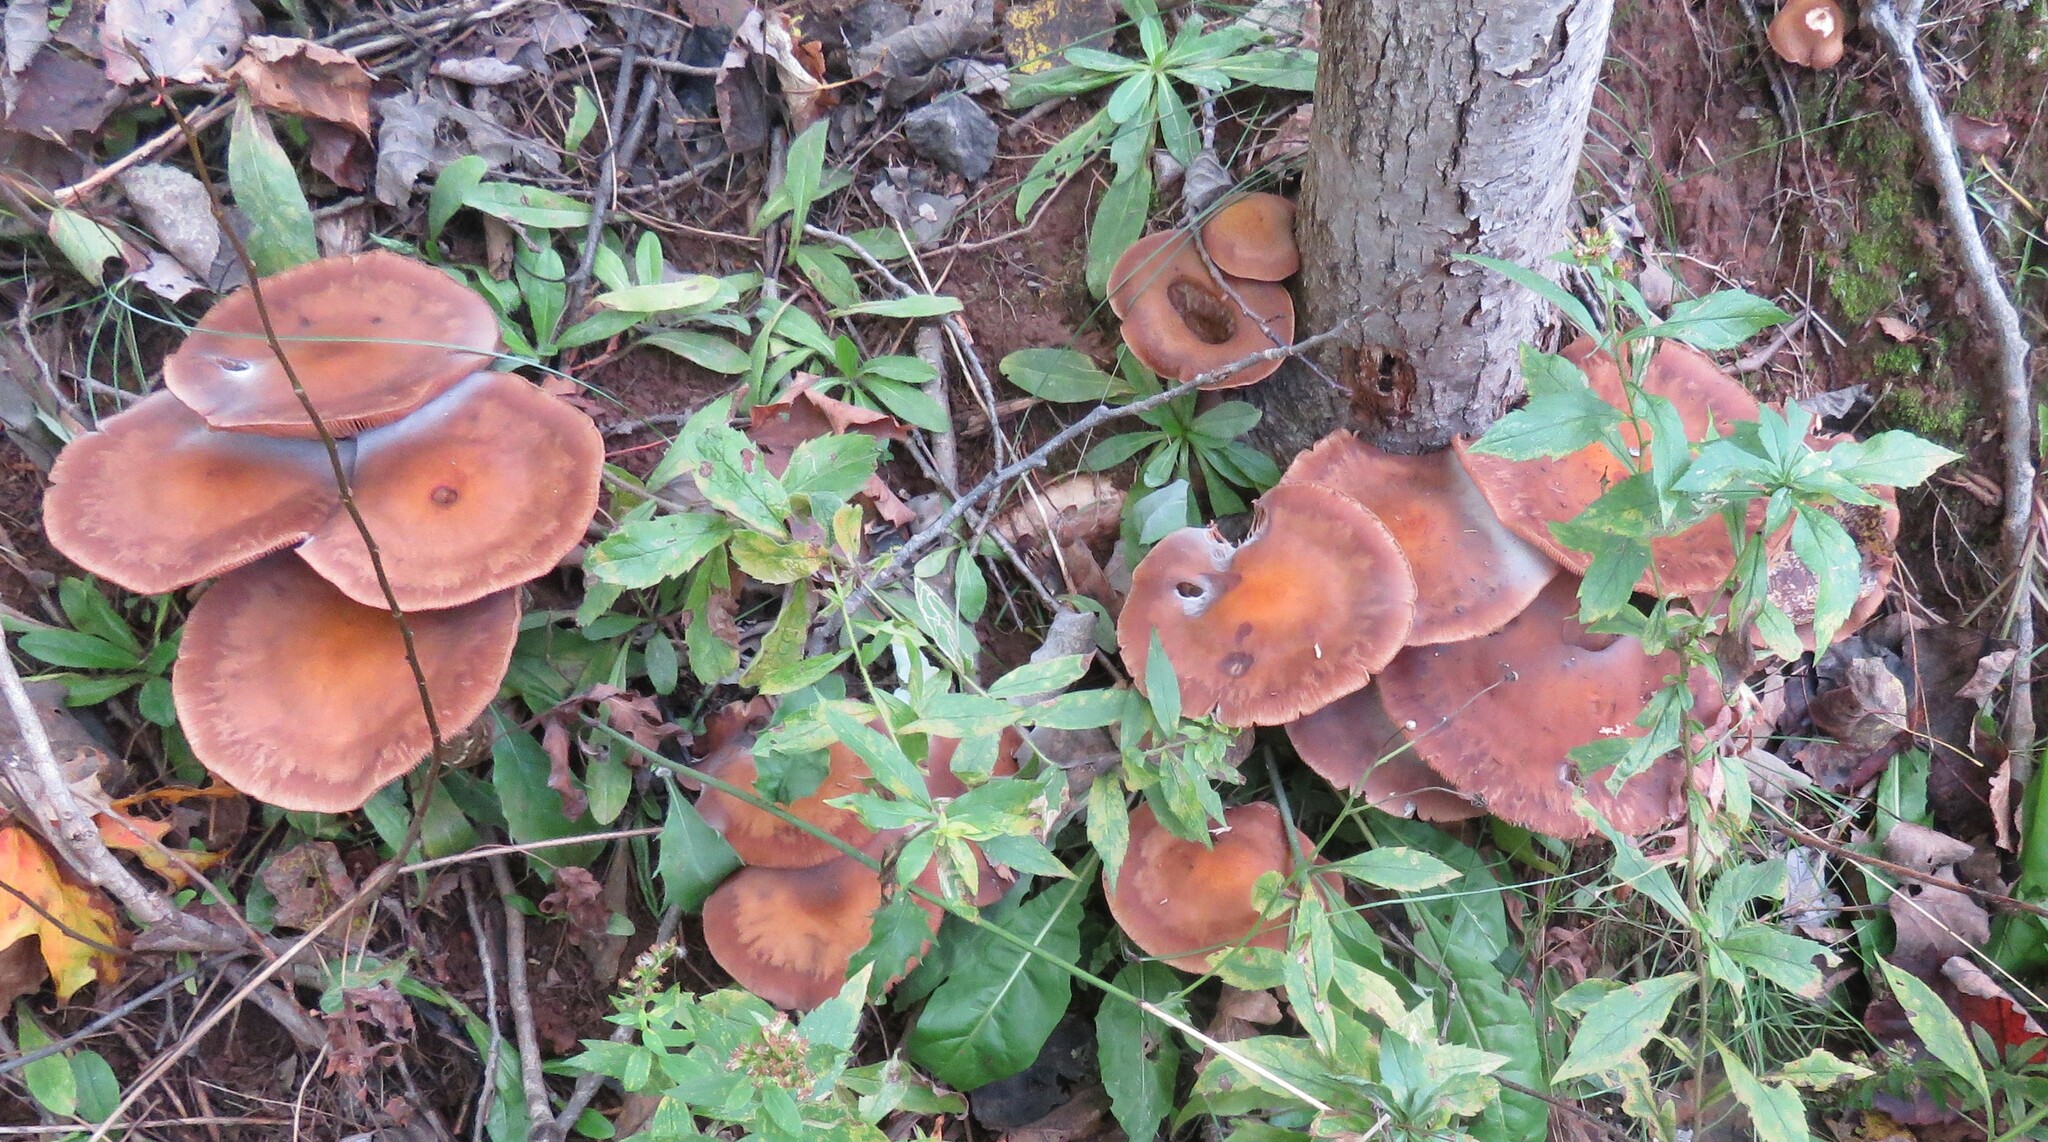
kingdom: Fungi
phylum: Basidiomycota
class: Agaricomycetes
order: Agaricales
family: Physalacriaceae
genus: Armillaria
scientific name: Armillaria mellea
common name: Honey fungus
